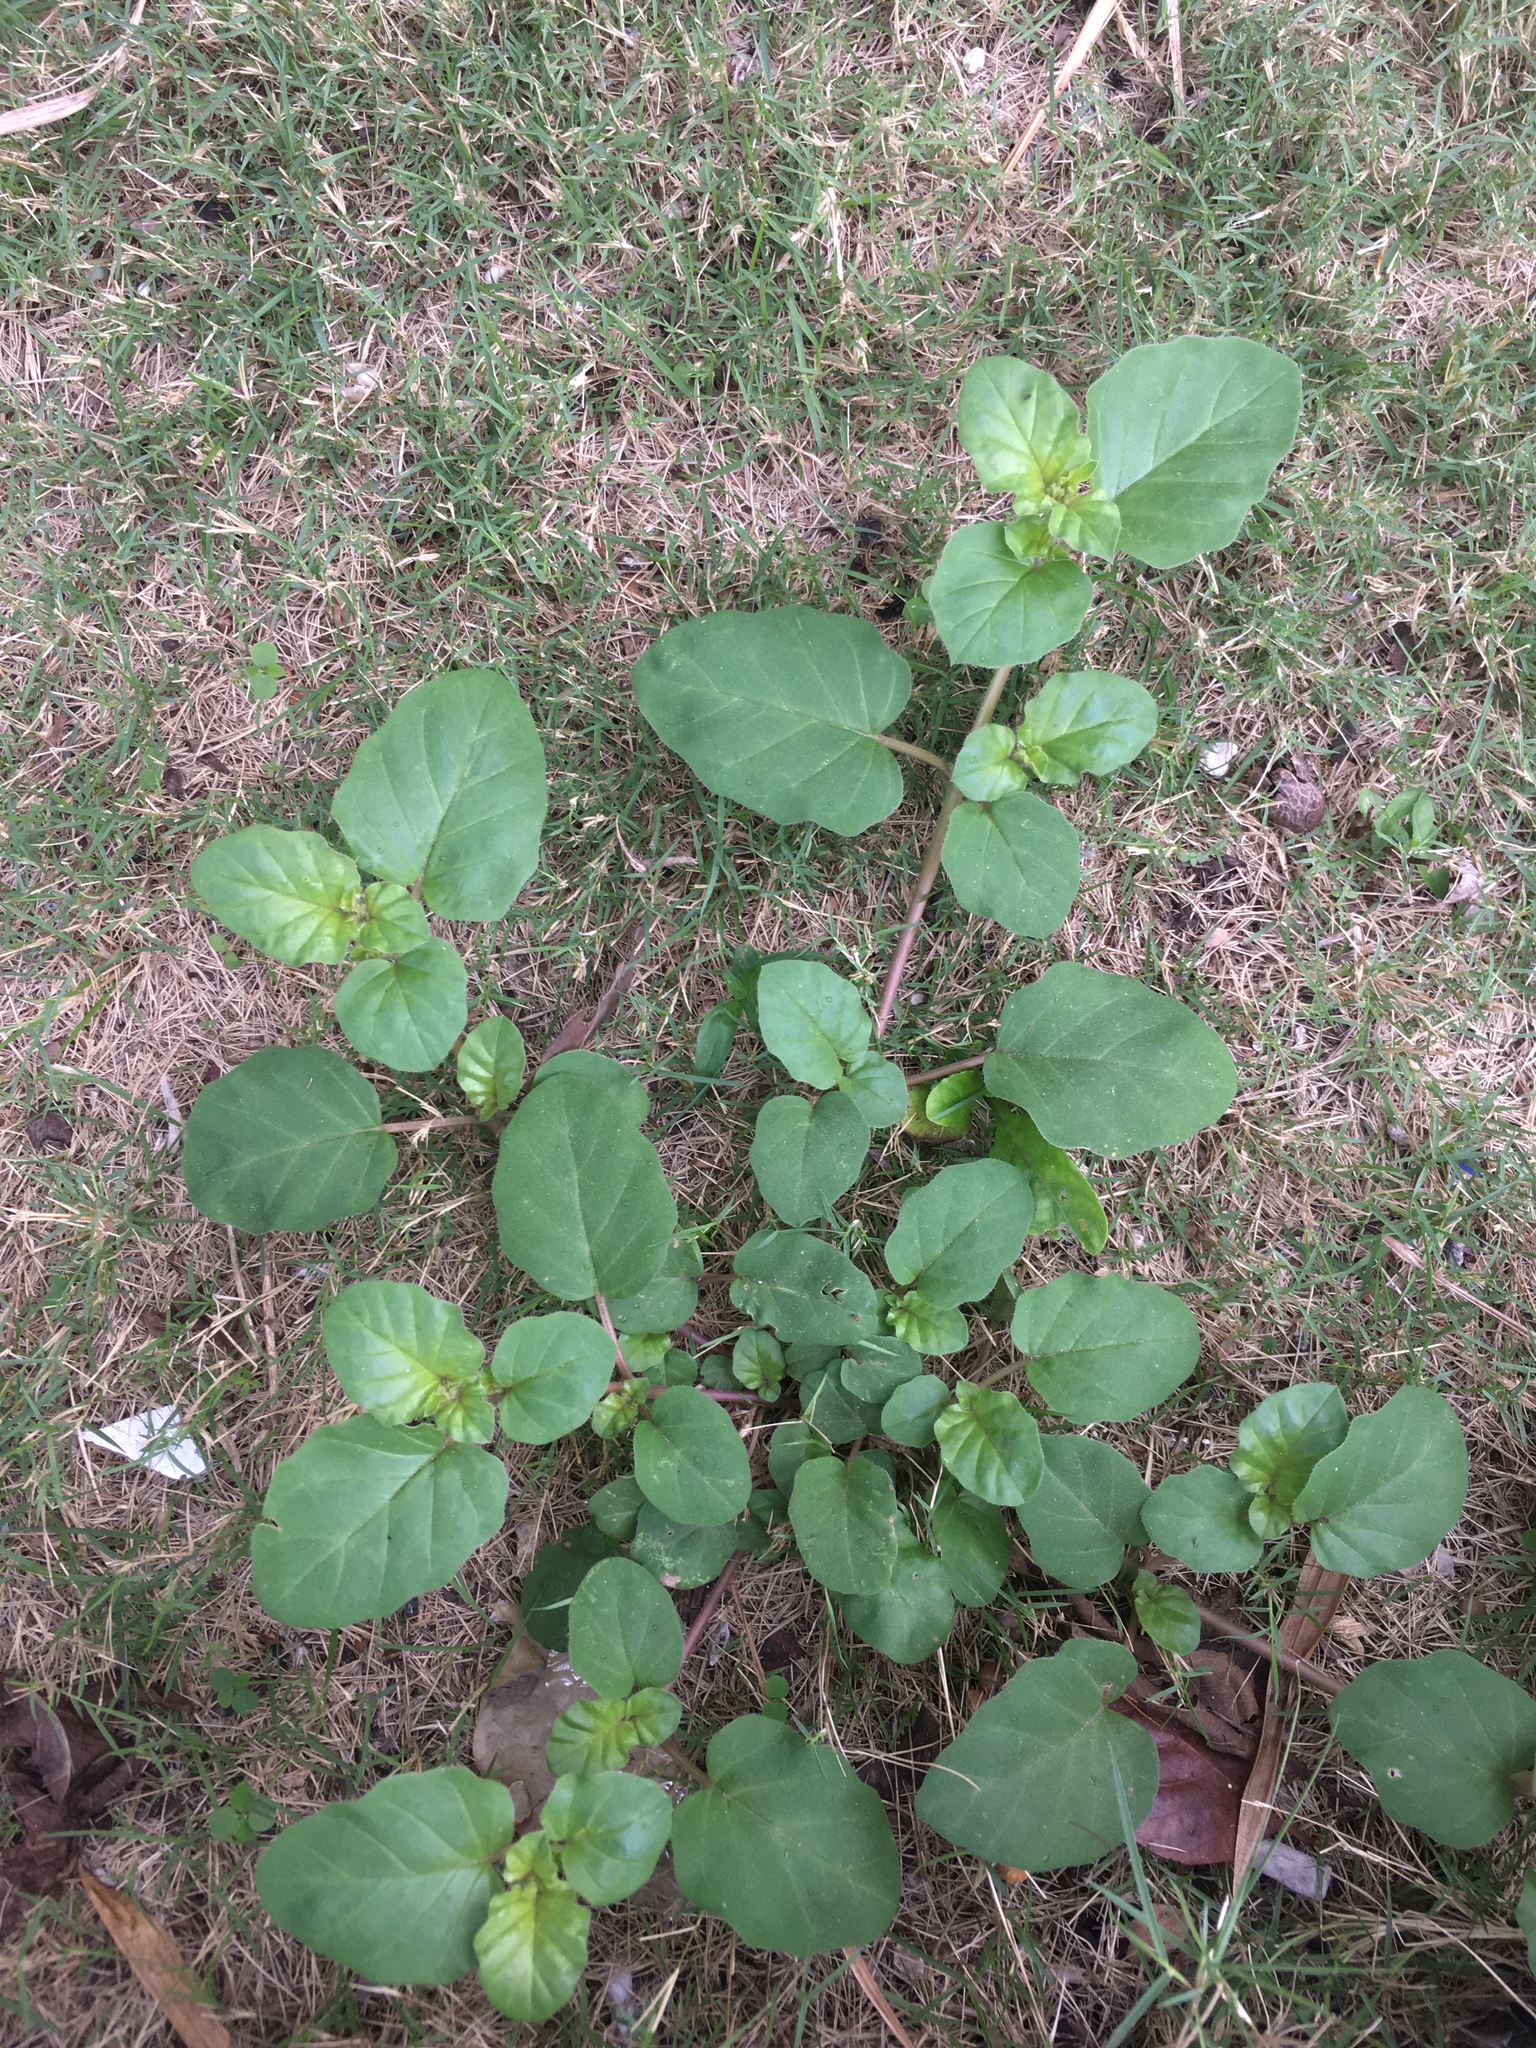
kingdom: Plantae
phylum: Tracheophyta
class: Magnoliopsida
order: Caryophyllales
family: Nyctaginaceae
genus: Boerhavia
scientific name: Boerhavia coccinea
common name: Scarlet spiderling
